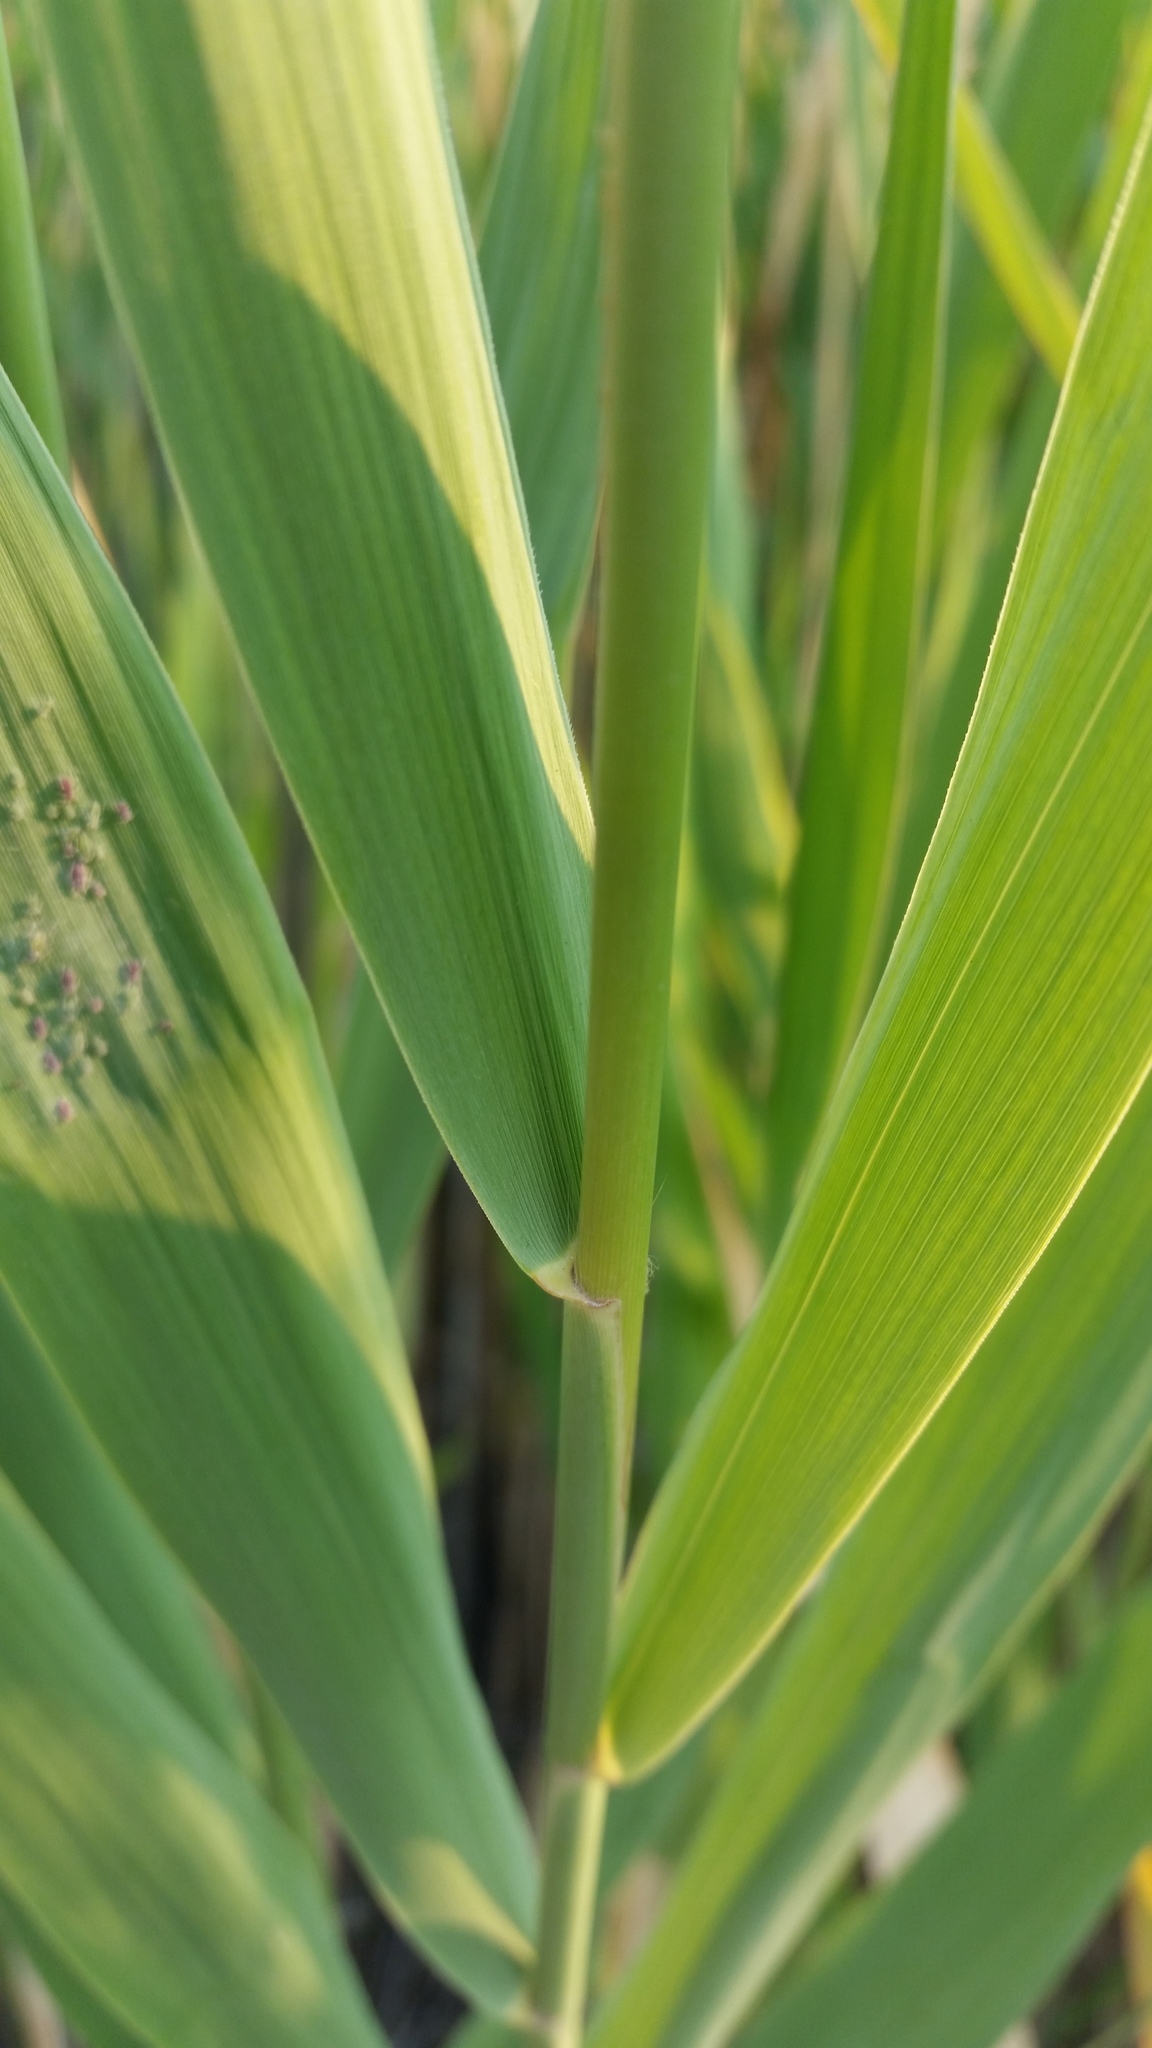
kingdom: Plantae
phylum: Tracheophyta
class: Liliopsida
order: Poales
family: Poaceae
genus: Phragmites
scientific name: Phragmites australis
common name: Common reed
